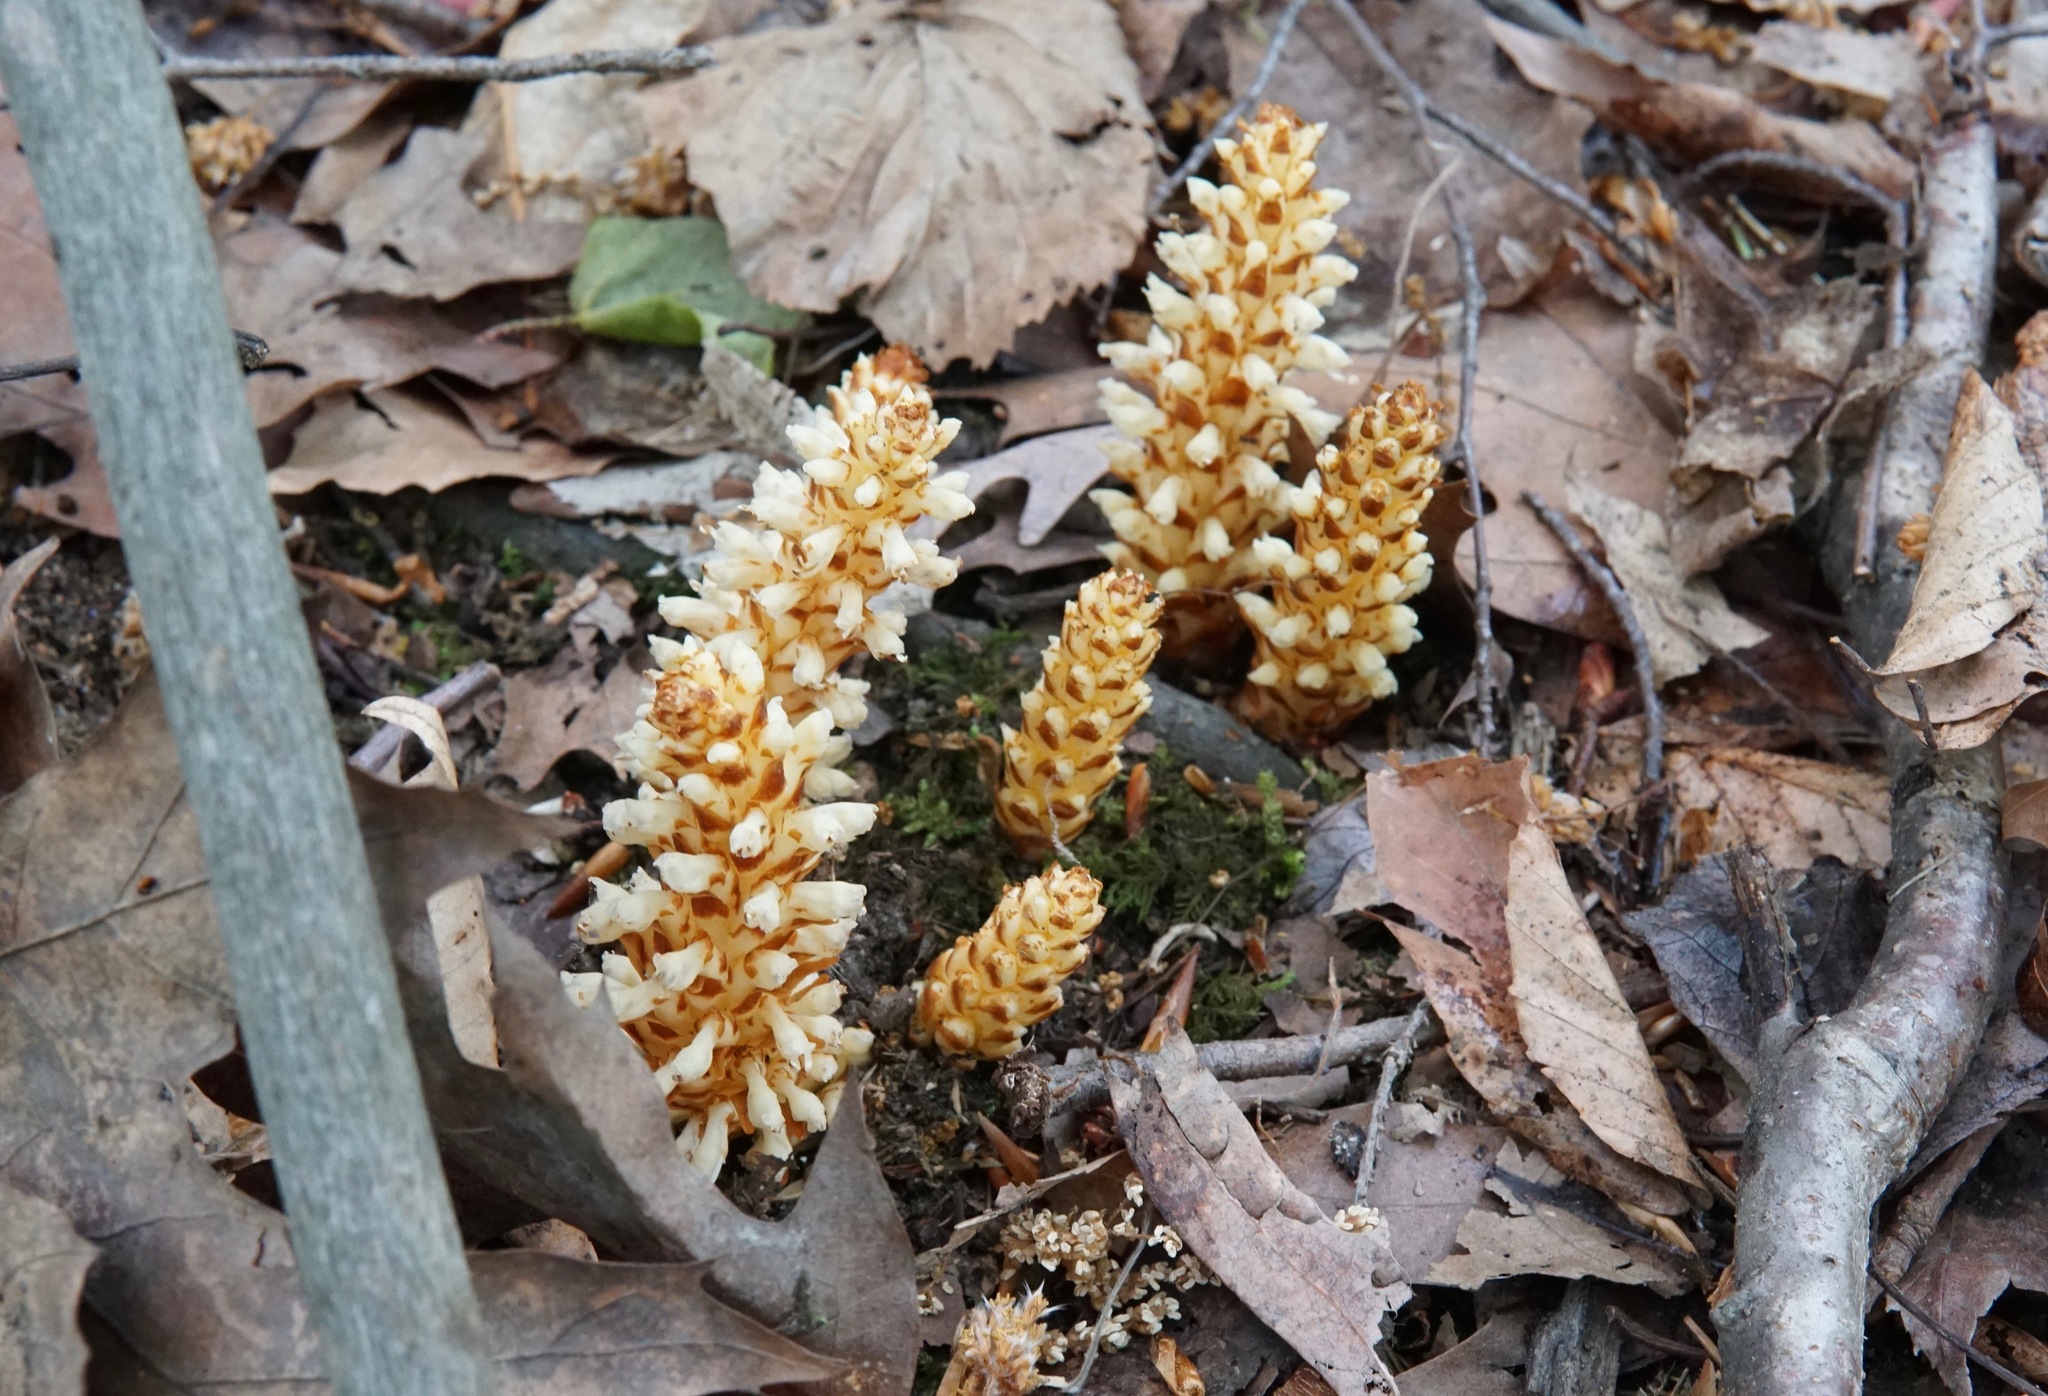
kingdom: Plantae
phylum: Tracheophyta
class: Magnoliopsida
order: Lamiales
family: Orobanchaceae
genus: Conopholis
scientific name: Conopholis americana
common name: American cancer-root
